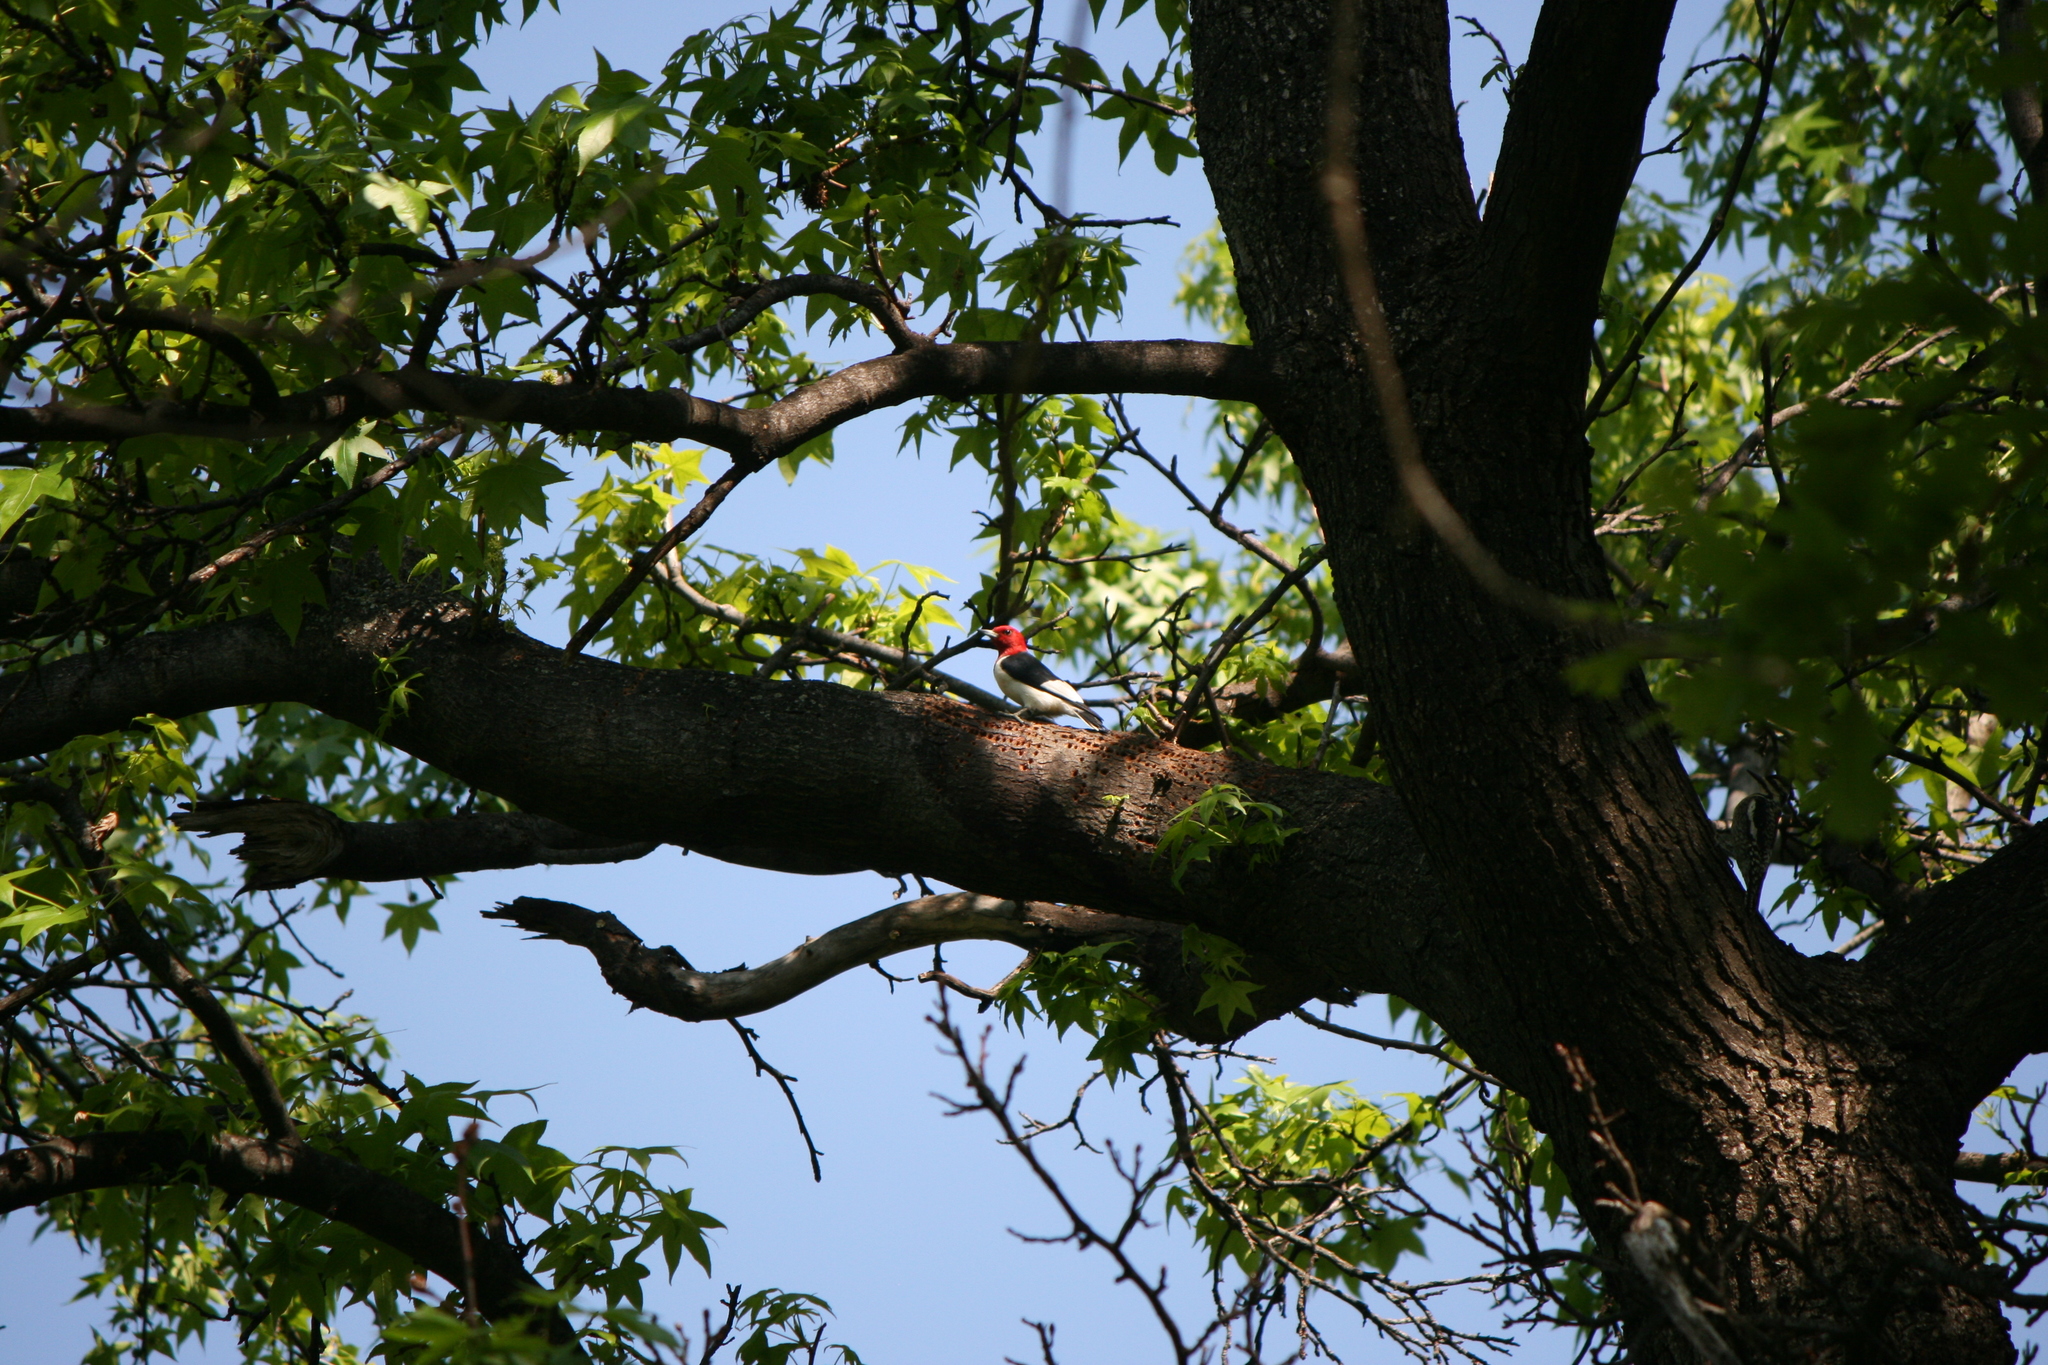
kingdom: Plantae
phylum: Tracheophyta
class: Magnoliopsida
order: Saxifragales
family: Altingiaceae
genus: Liquidambar
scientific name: Liquidambar styraciflua
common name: Sweet gum
